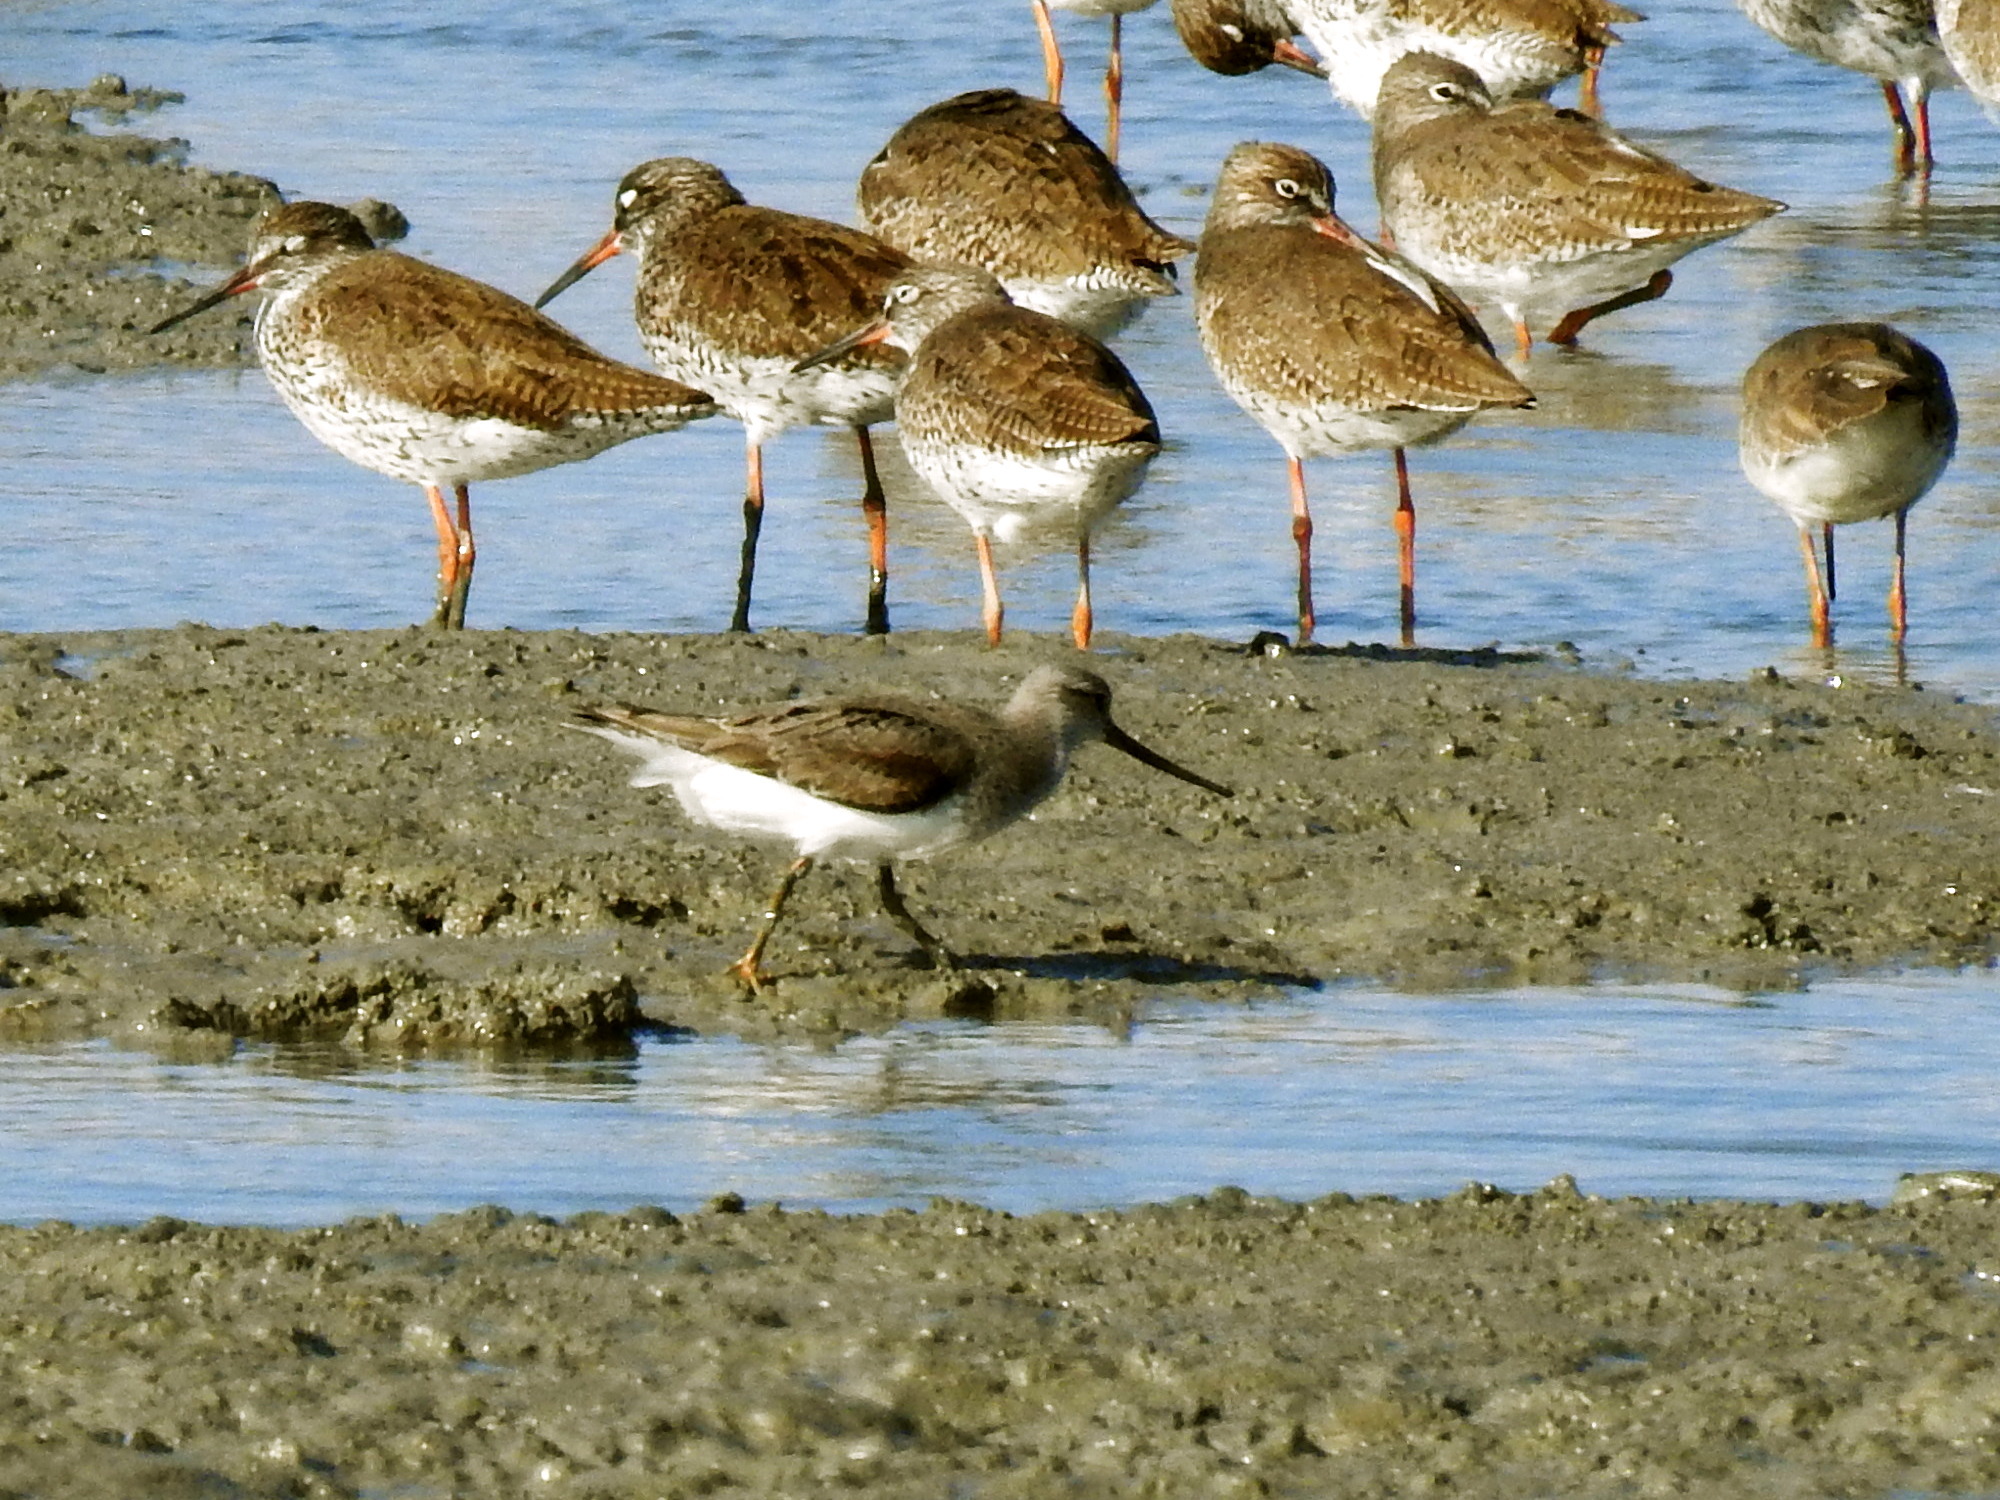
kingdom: Animalia
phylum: Chordata
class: Aves
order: Charadriiformes
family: Scolopacidae
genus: Xenus
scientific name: Xenus cinereus
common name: Terek sandpiper
